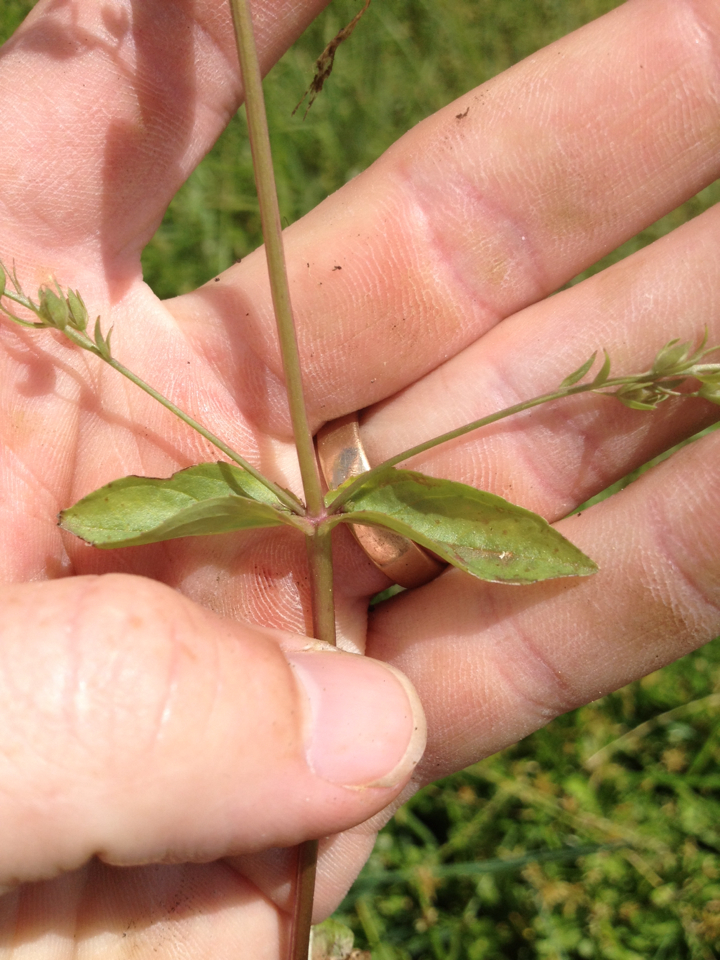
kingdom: Plantae
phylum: Tracheophyta
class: Magnoliopsida
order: Lamiales
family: Plantaginaceae
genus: Veronica
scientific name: Veronica anagallis-aquatica
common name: Water speedwell
